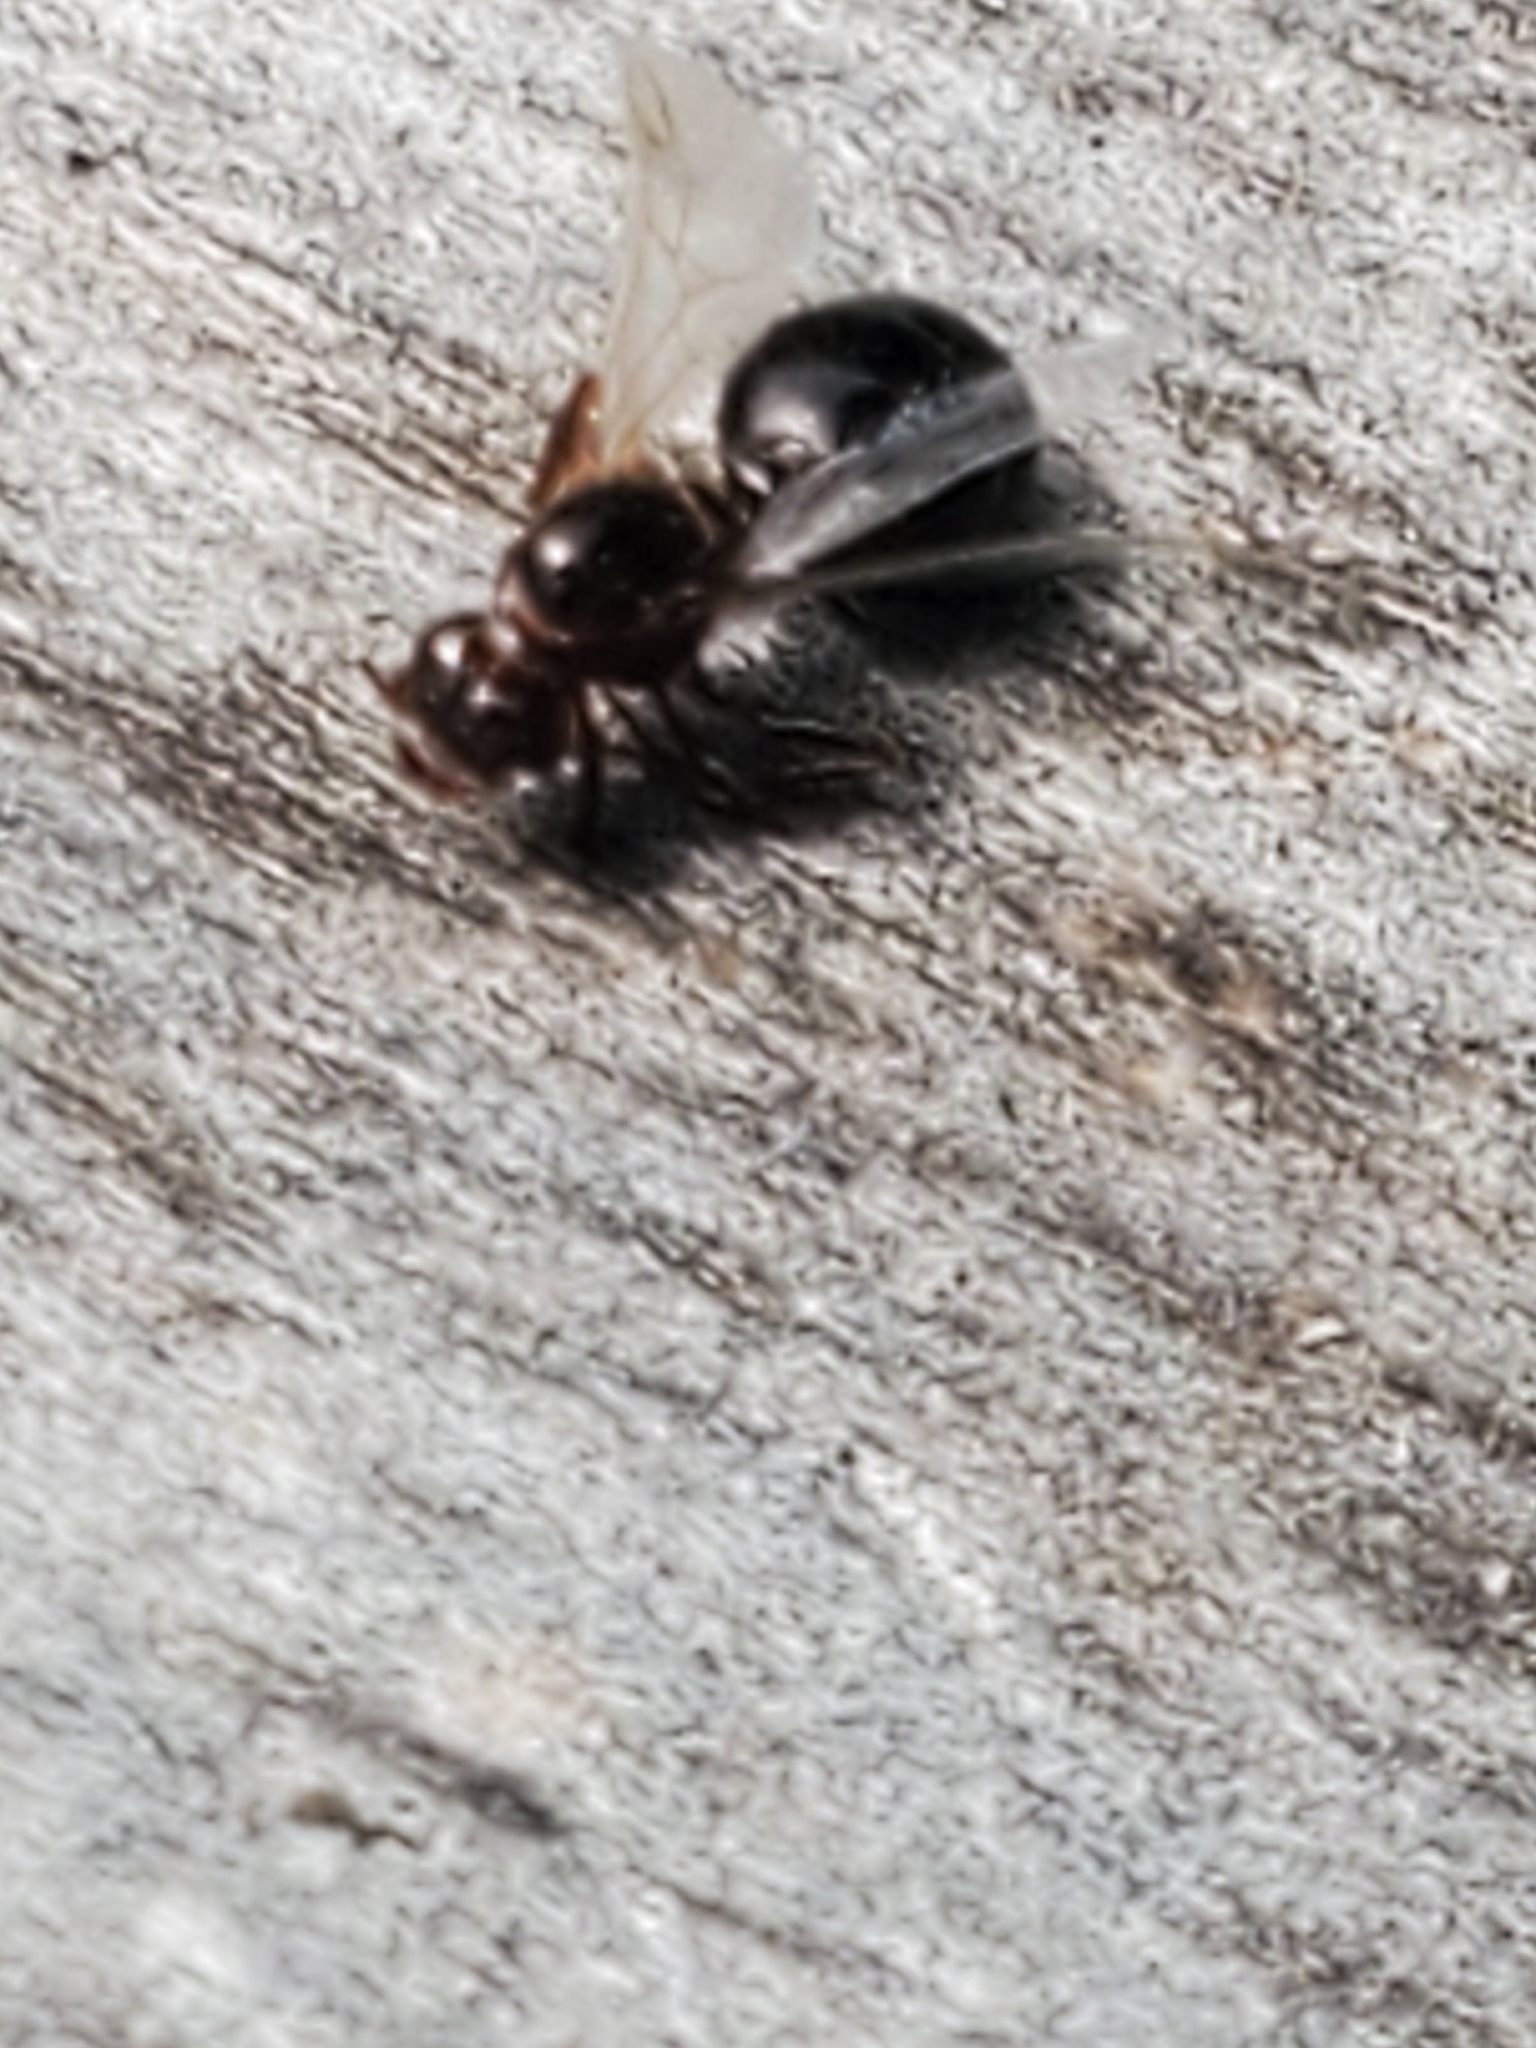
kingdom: Animalia
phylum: Arthropoda
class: Insecta
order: Hymenoptera
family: Formicidae
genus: Solenopsis
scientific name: Solenopsis invicta
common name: Red imported fire ant
